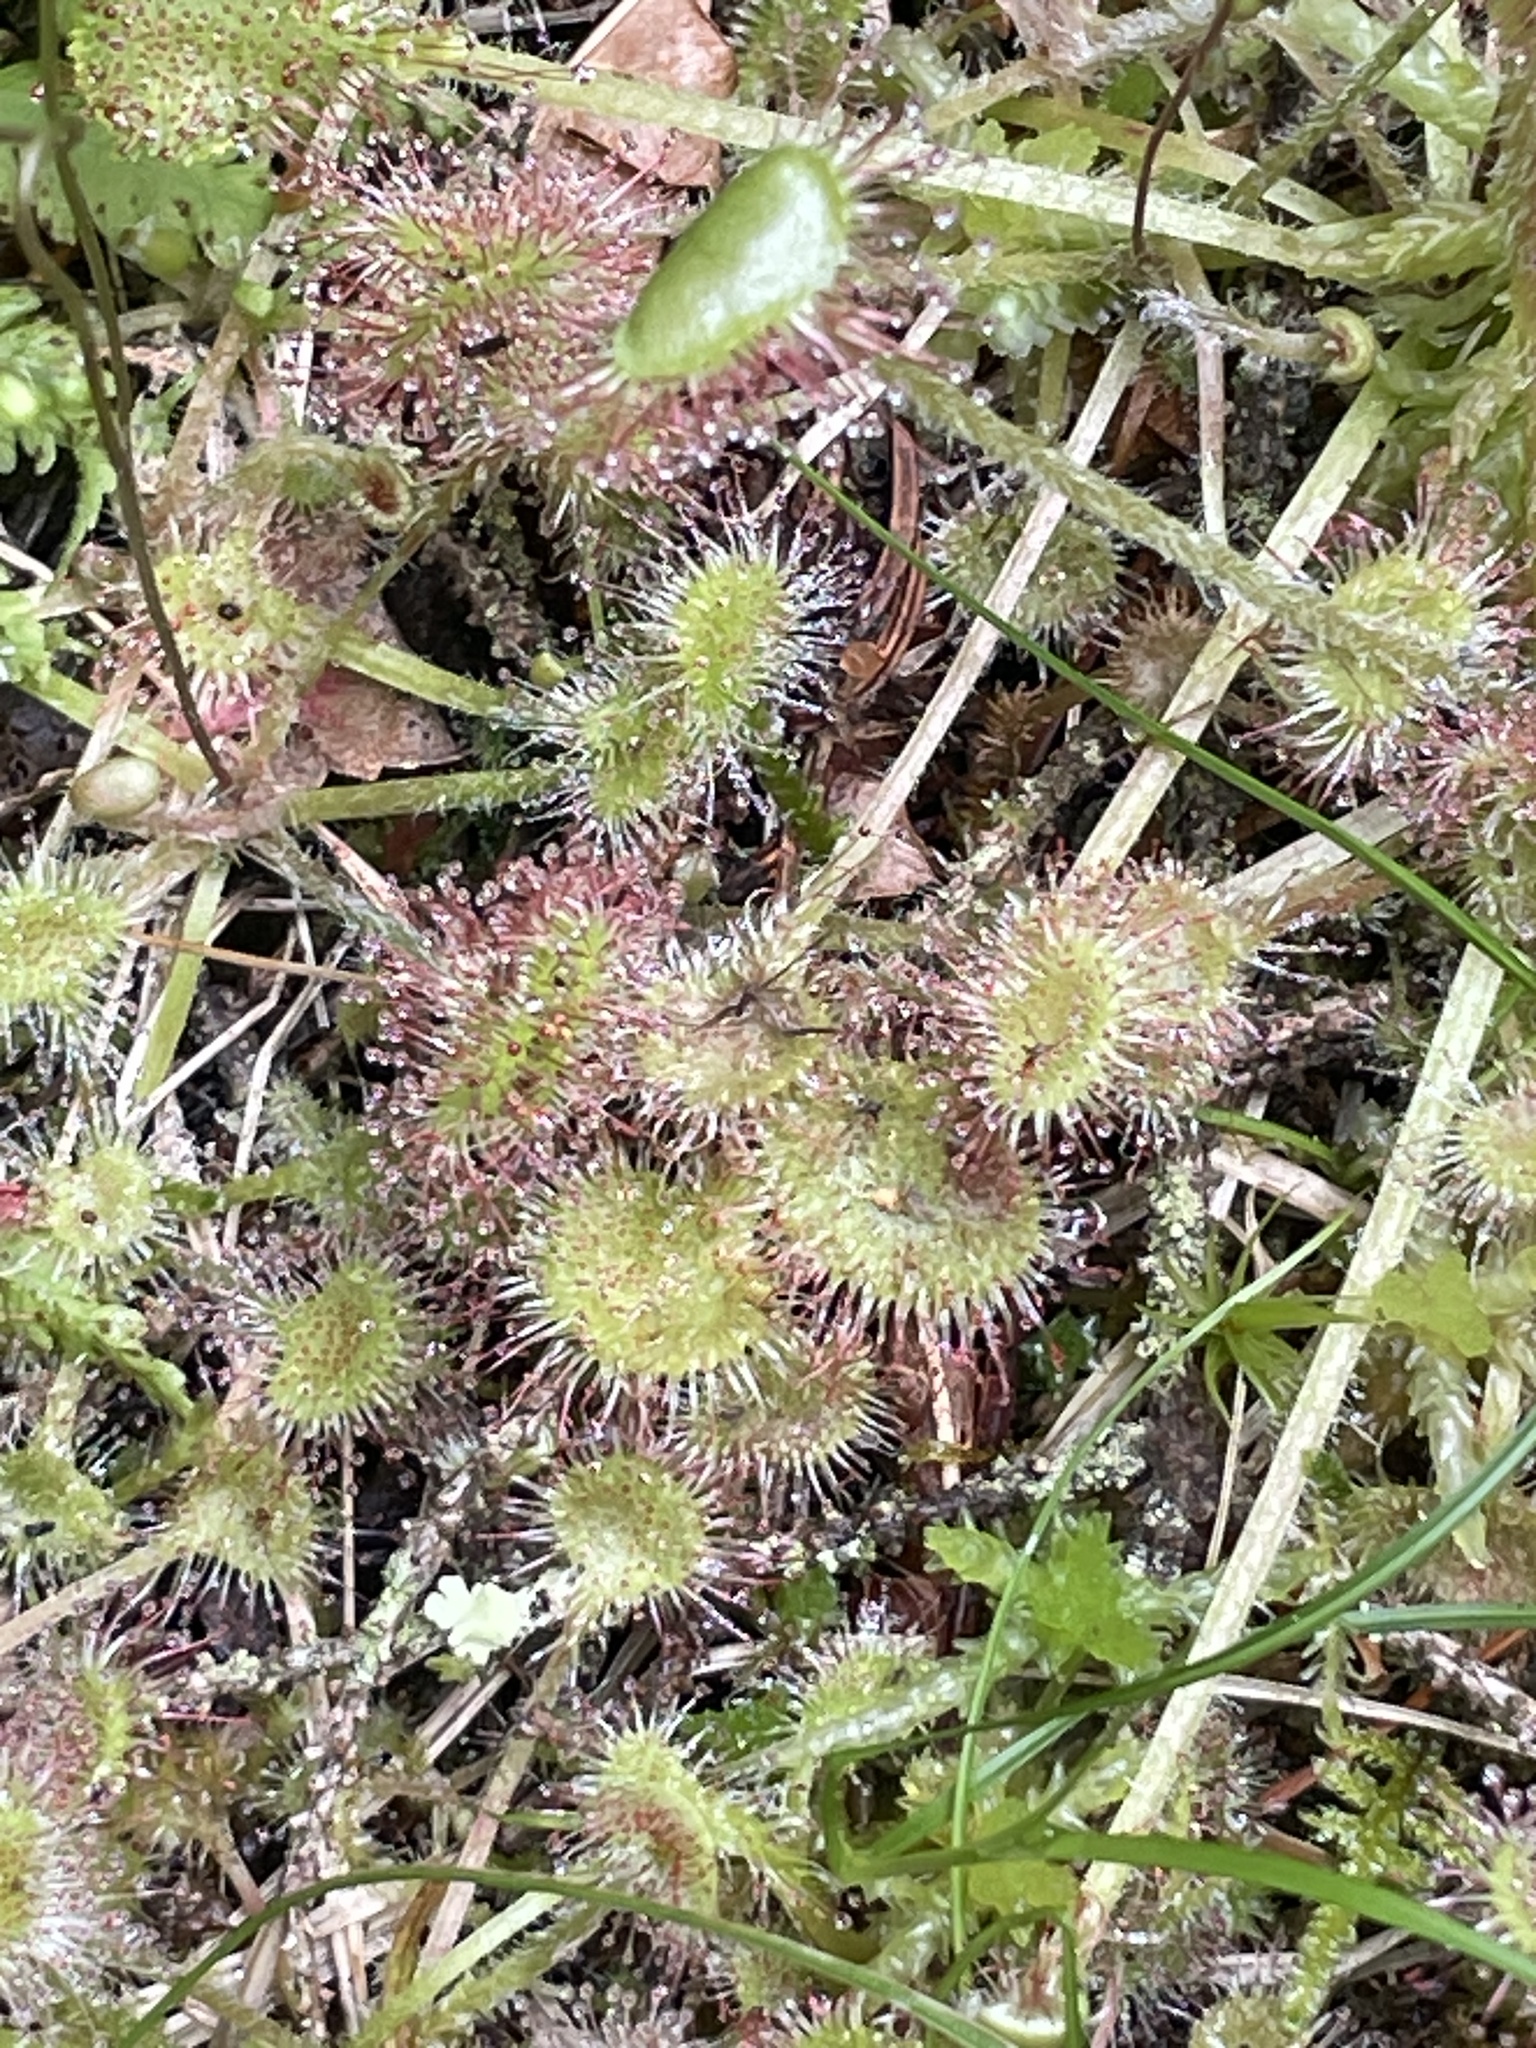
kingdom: Plantae
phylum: Tracheophyta
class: Magnoliopsida
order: Caryophyllales
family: Droseraceae
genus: Drosera
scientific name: Drosera rotundifolia
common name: Round-leaved sundew
